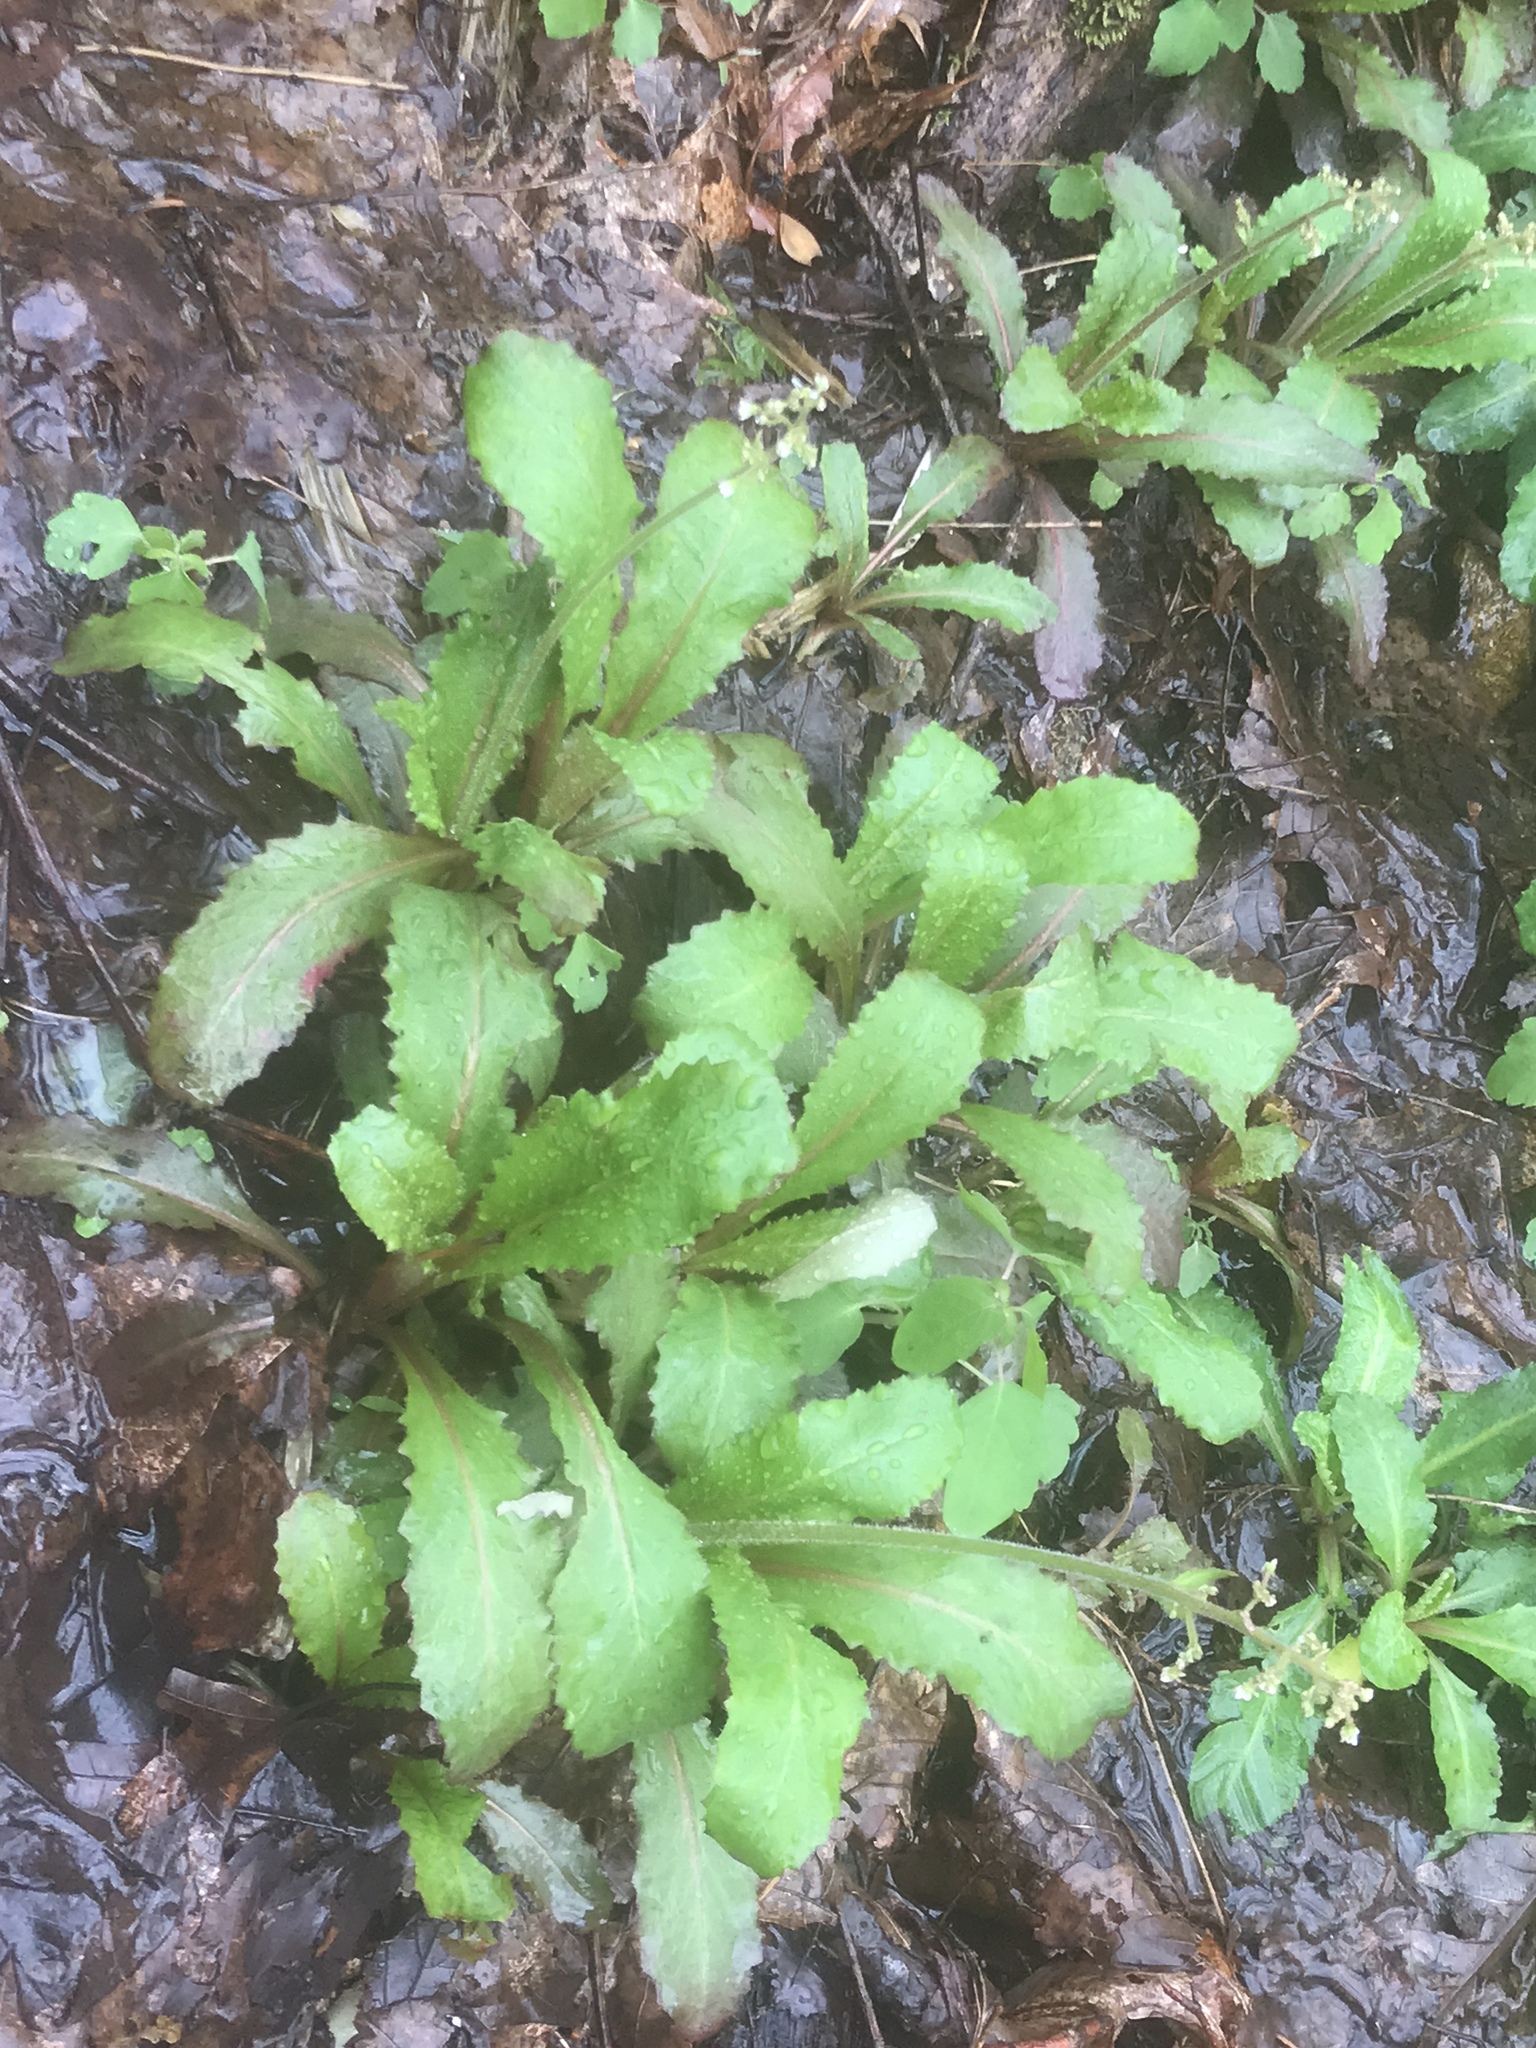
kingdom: Plantae
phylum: Tracheophyta
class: Magnoliopsida
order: Saxifragales
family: Saxifragaceae
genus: Micranthes
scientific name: Micranthes micranthidifolia
